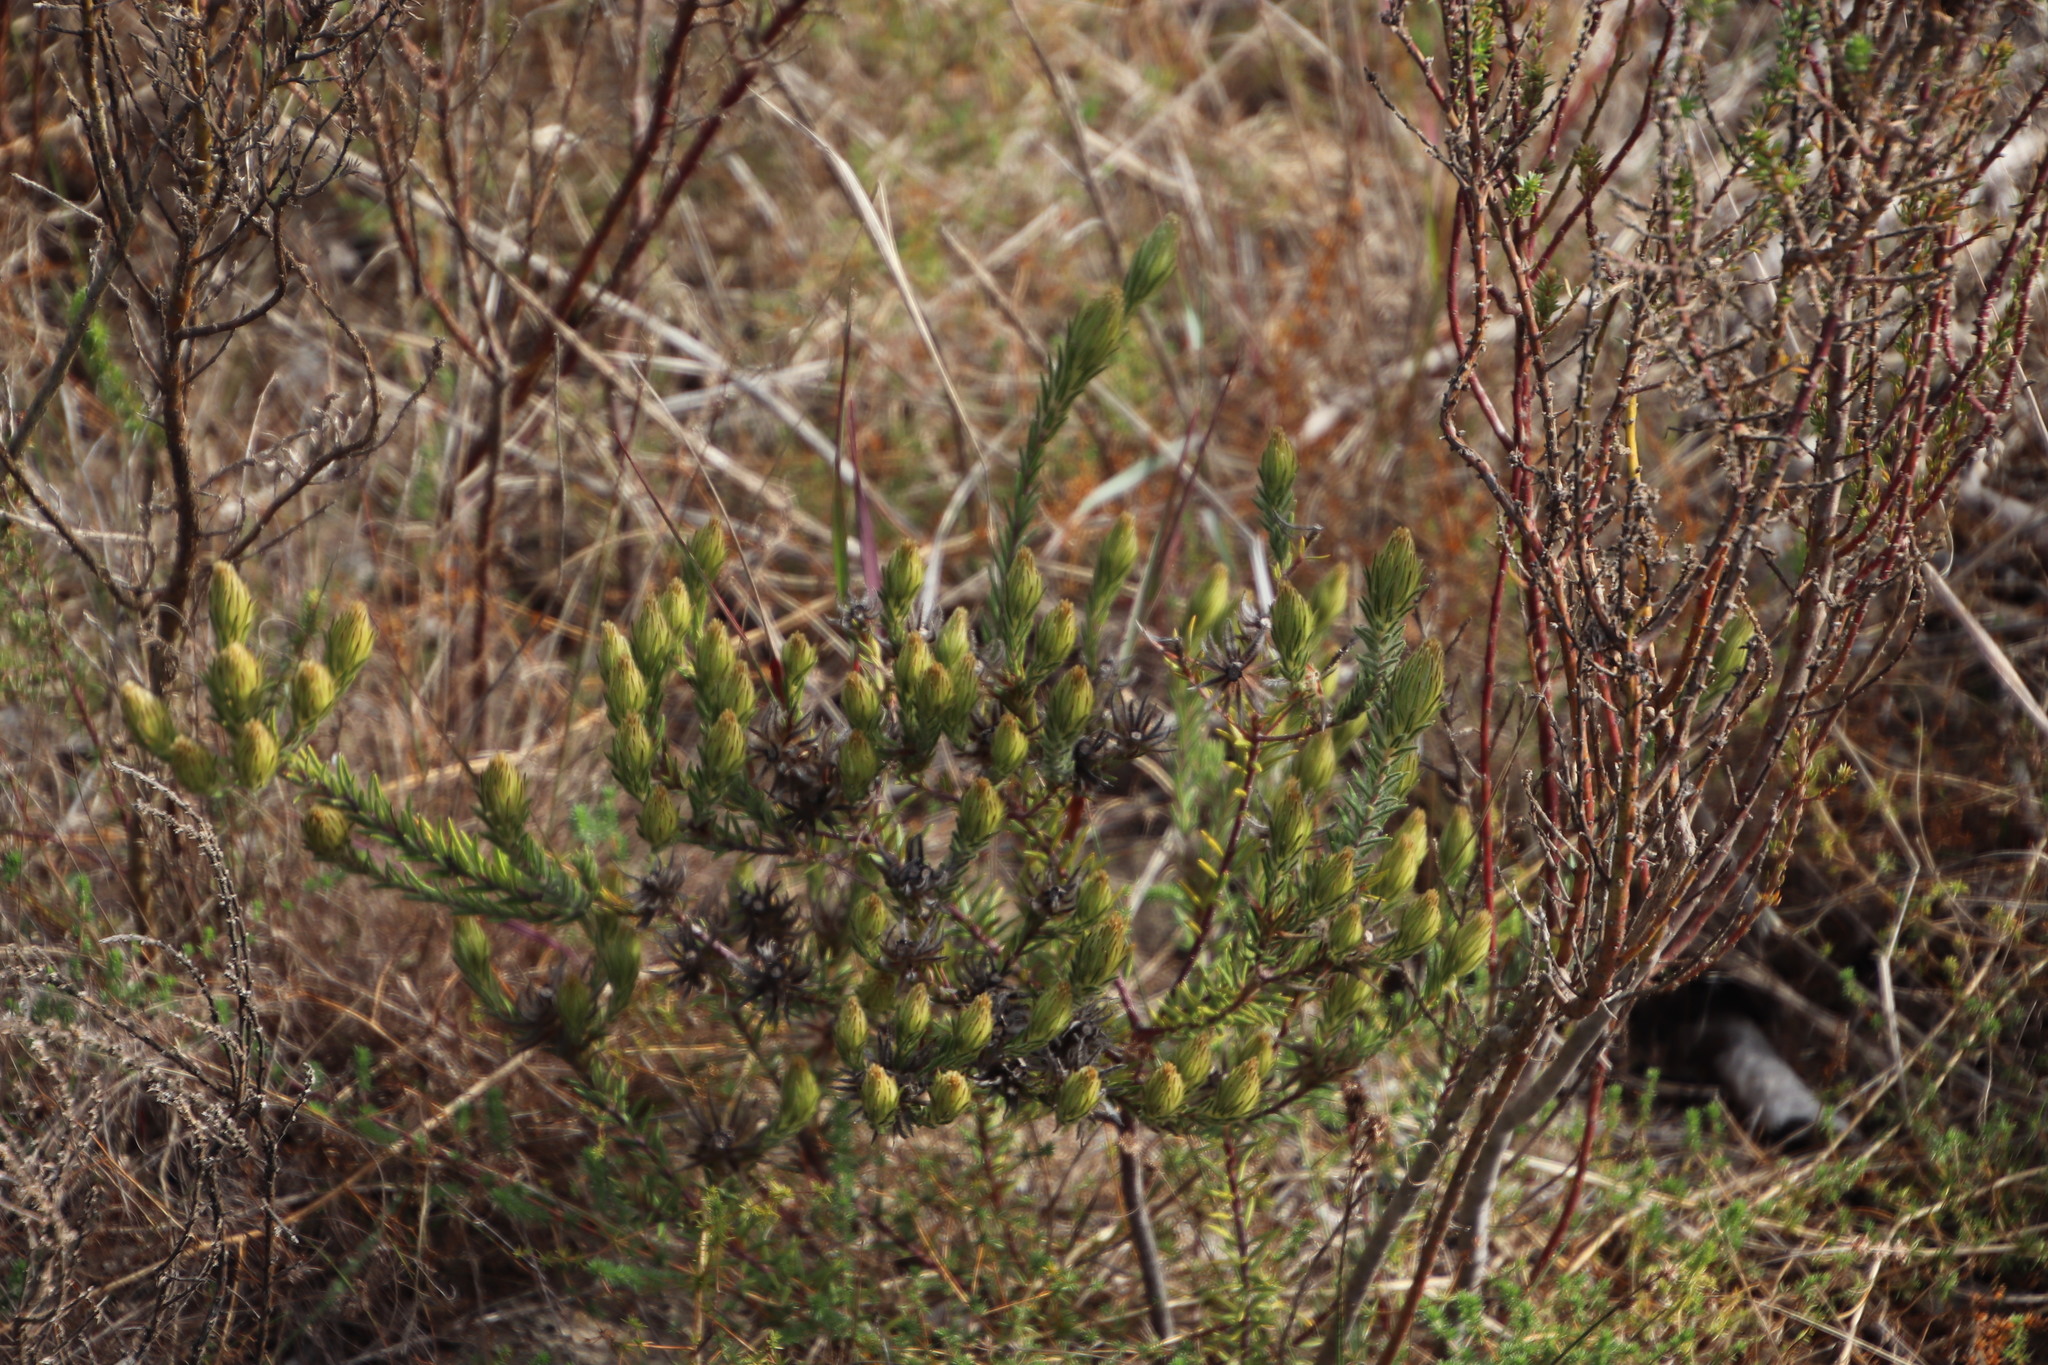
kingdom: Plantae
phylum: Tracheophyta
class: Magnoliopsida
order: Rosales
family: Rhamnaceae
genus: Phylica
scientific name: Phylica pubescens
